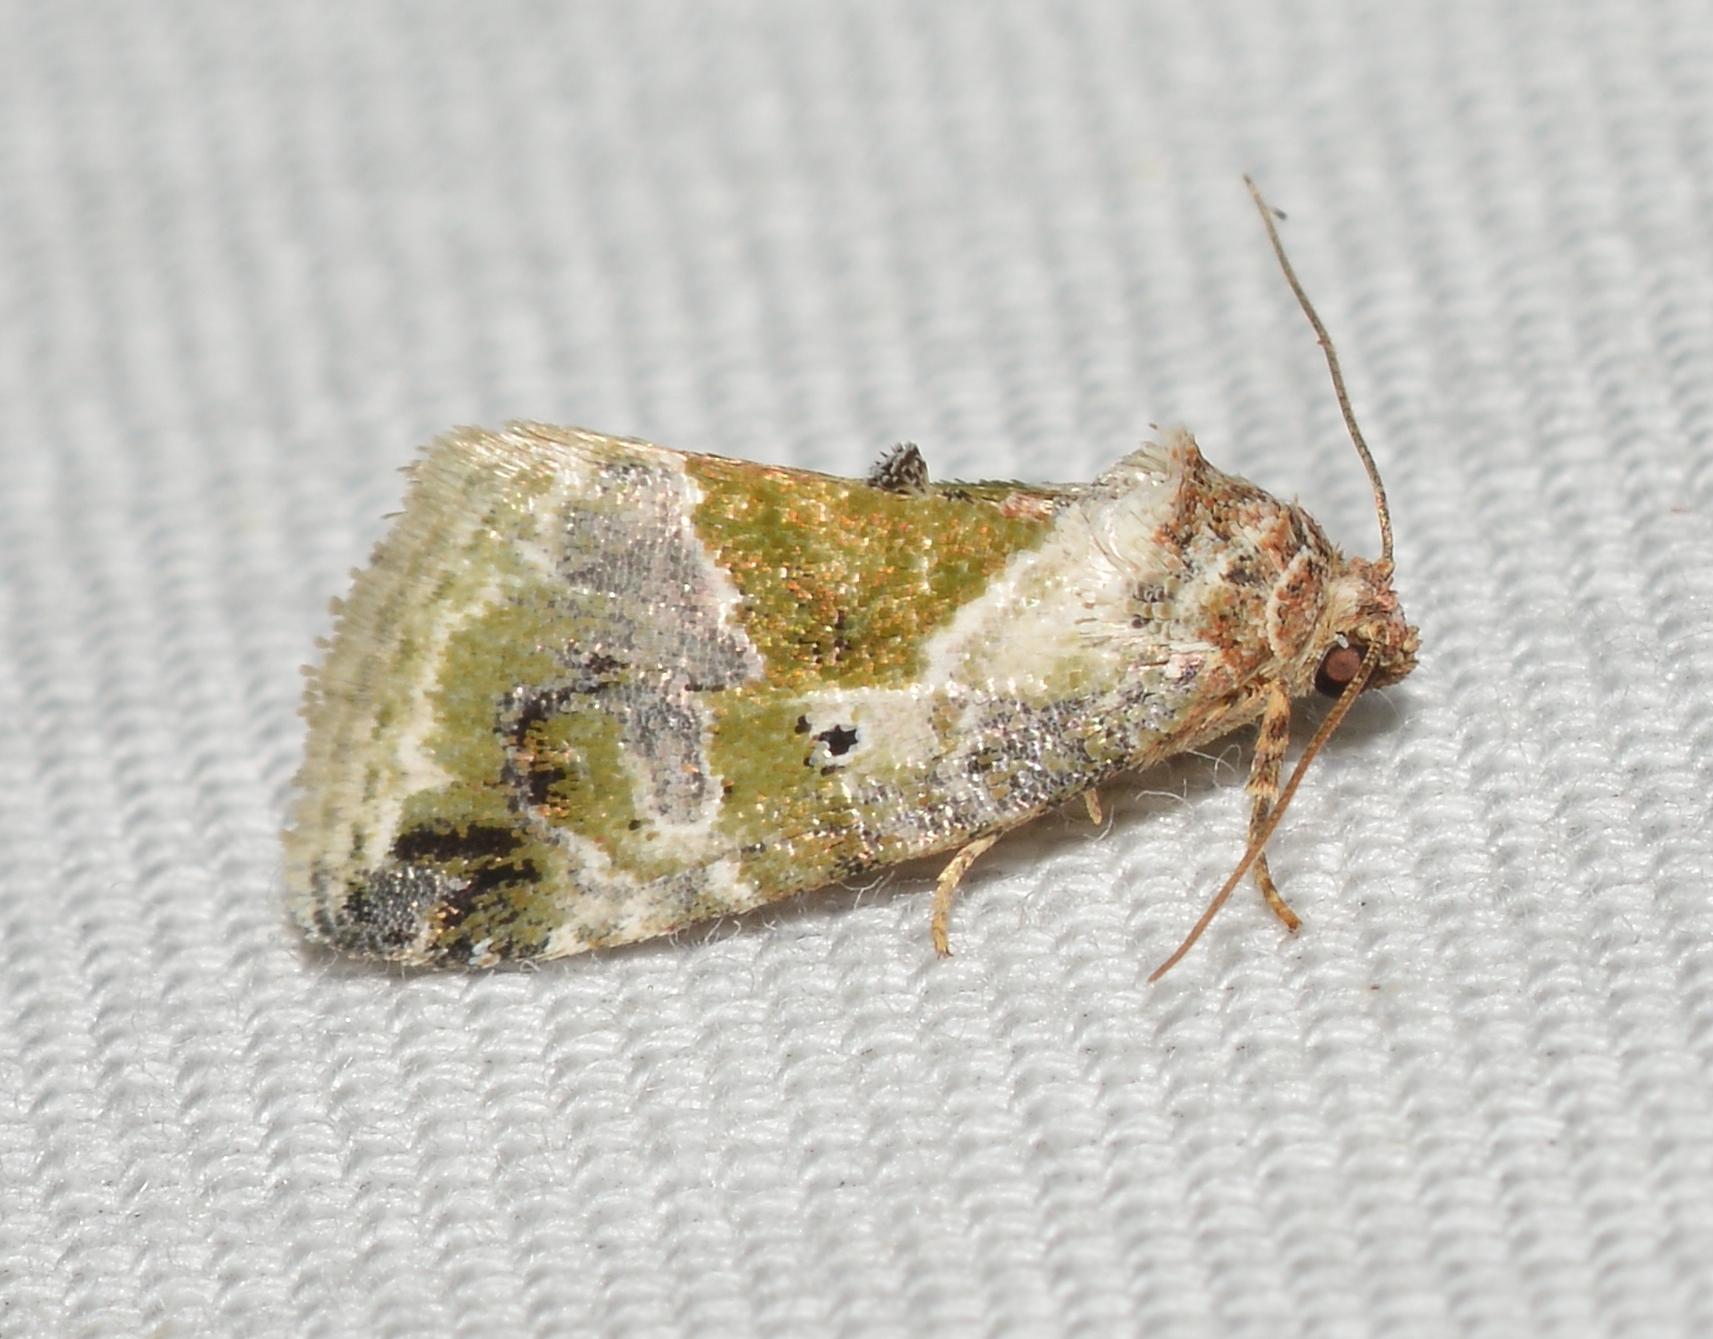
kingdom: Animalia
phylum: Arthropoda
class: Insecta
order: Lepidoptera
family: Noctuidae
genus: Maliattha
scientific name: Maliattha synochitis
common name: Black-dotted glyph
